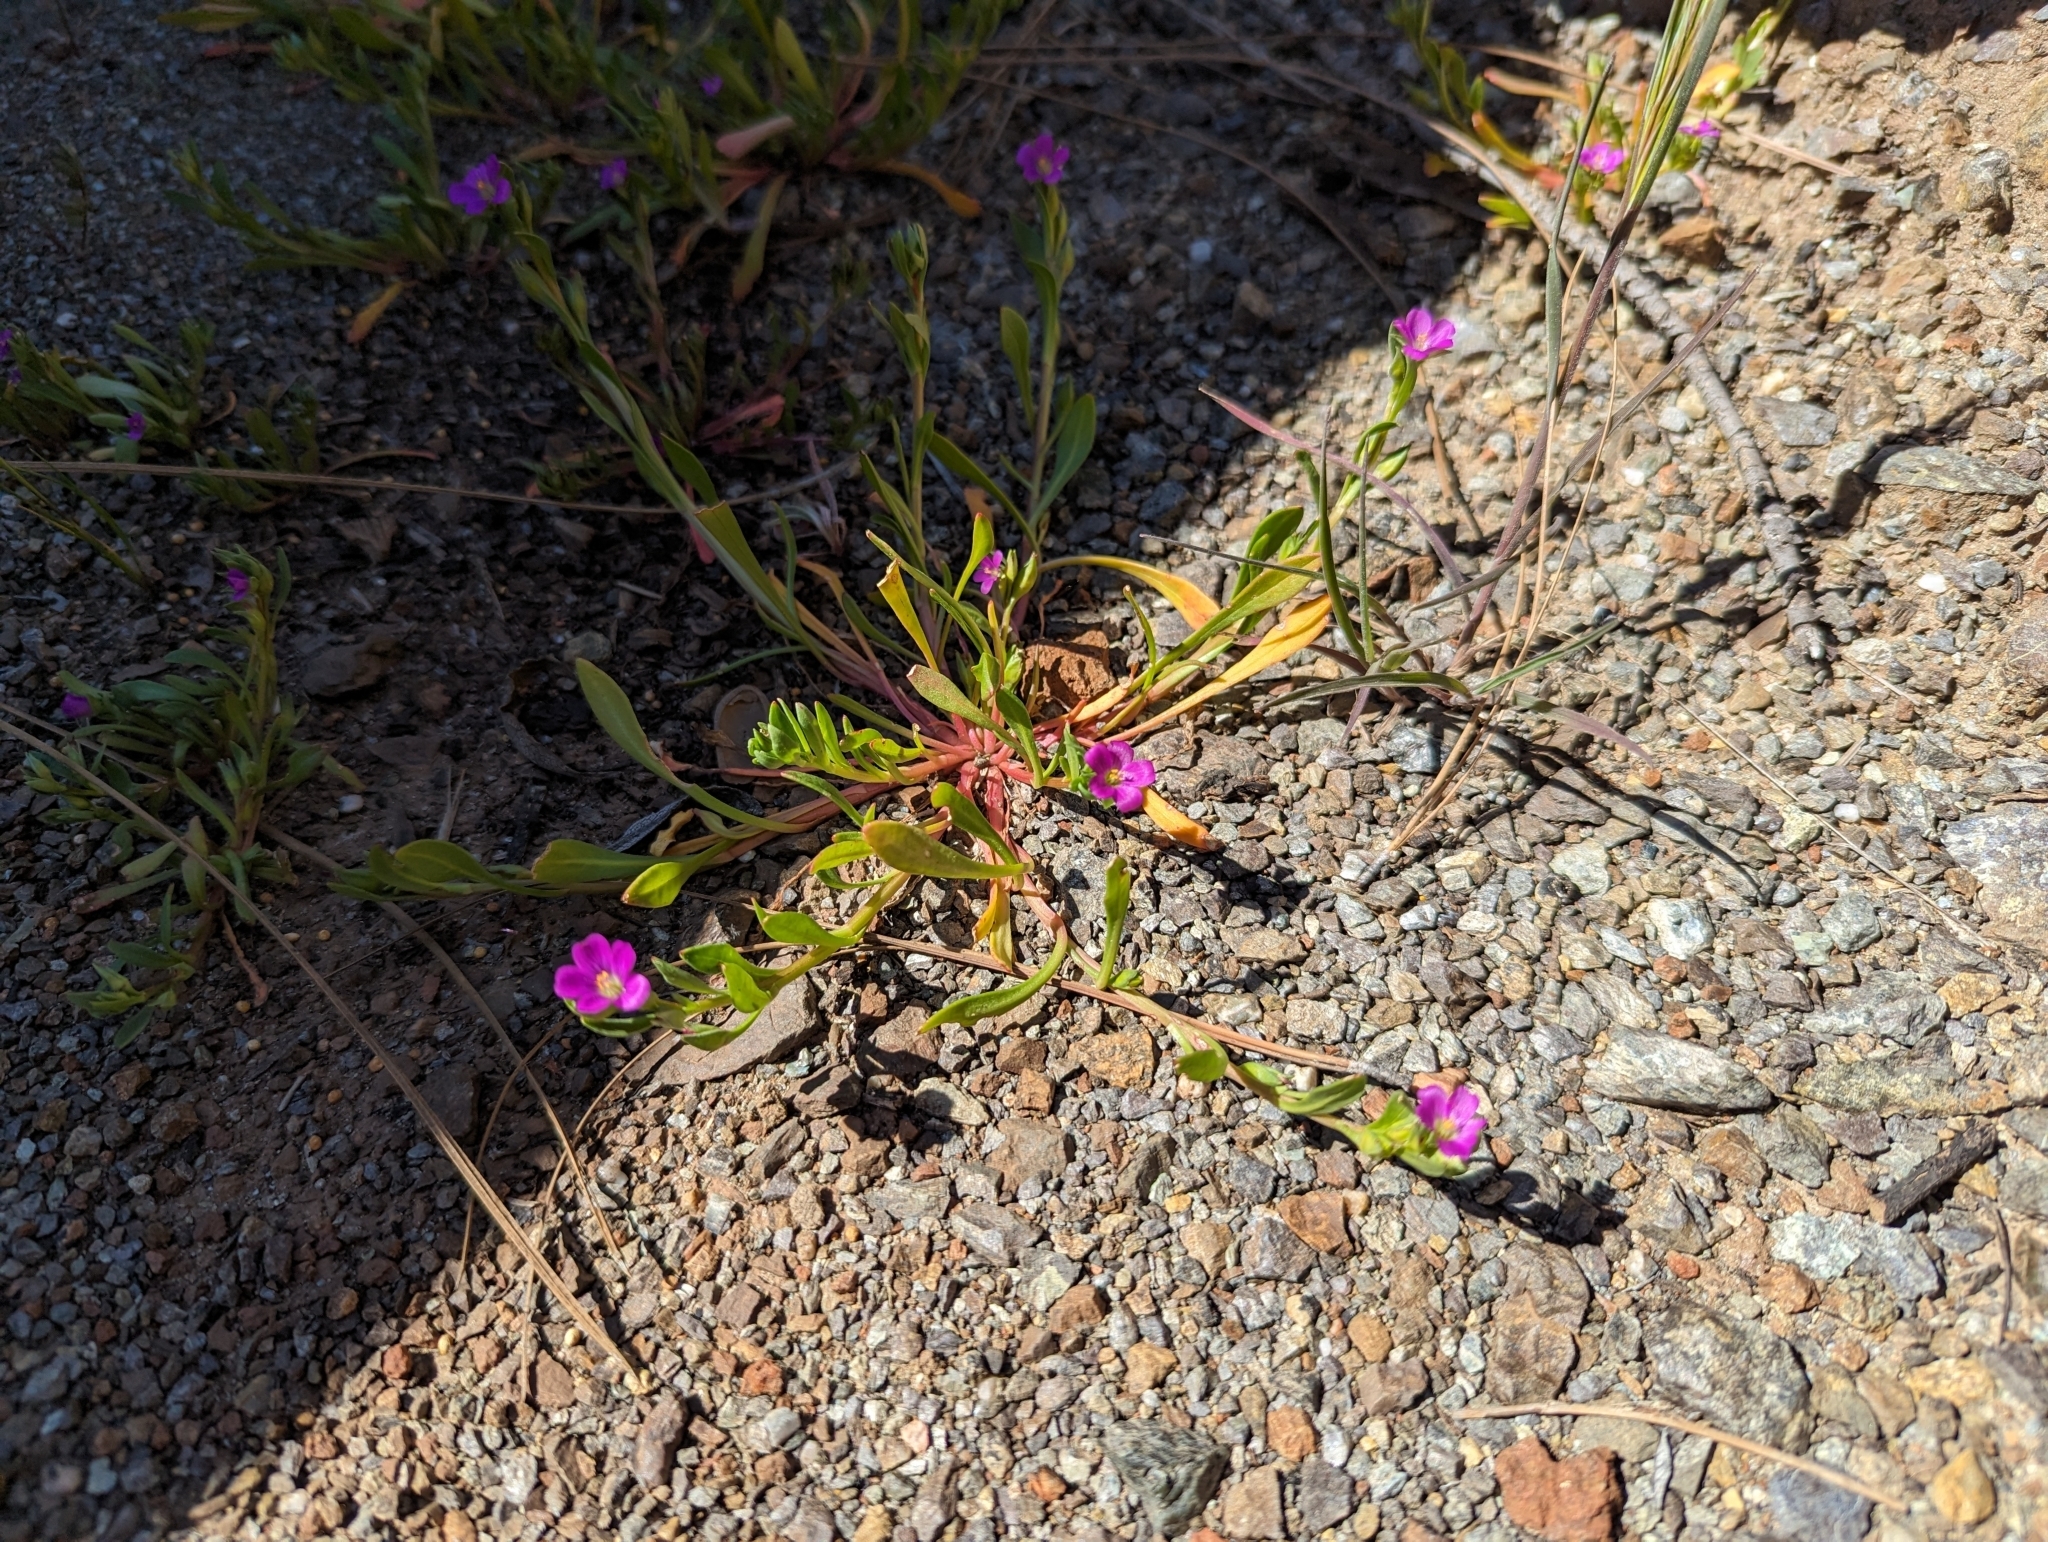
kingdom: Plantae
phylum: Tracheophyta
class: Magnoliopsida
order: Caryophyllales
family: Montiaceae
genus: Calandrinia
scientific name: Calandrinia menziesii
